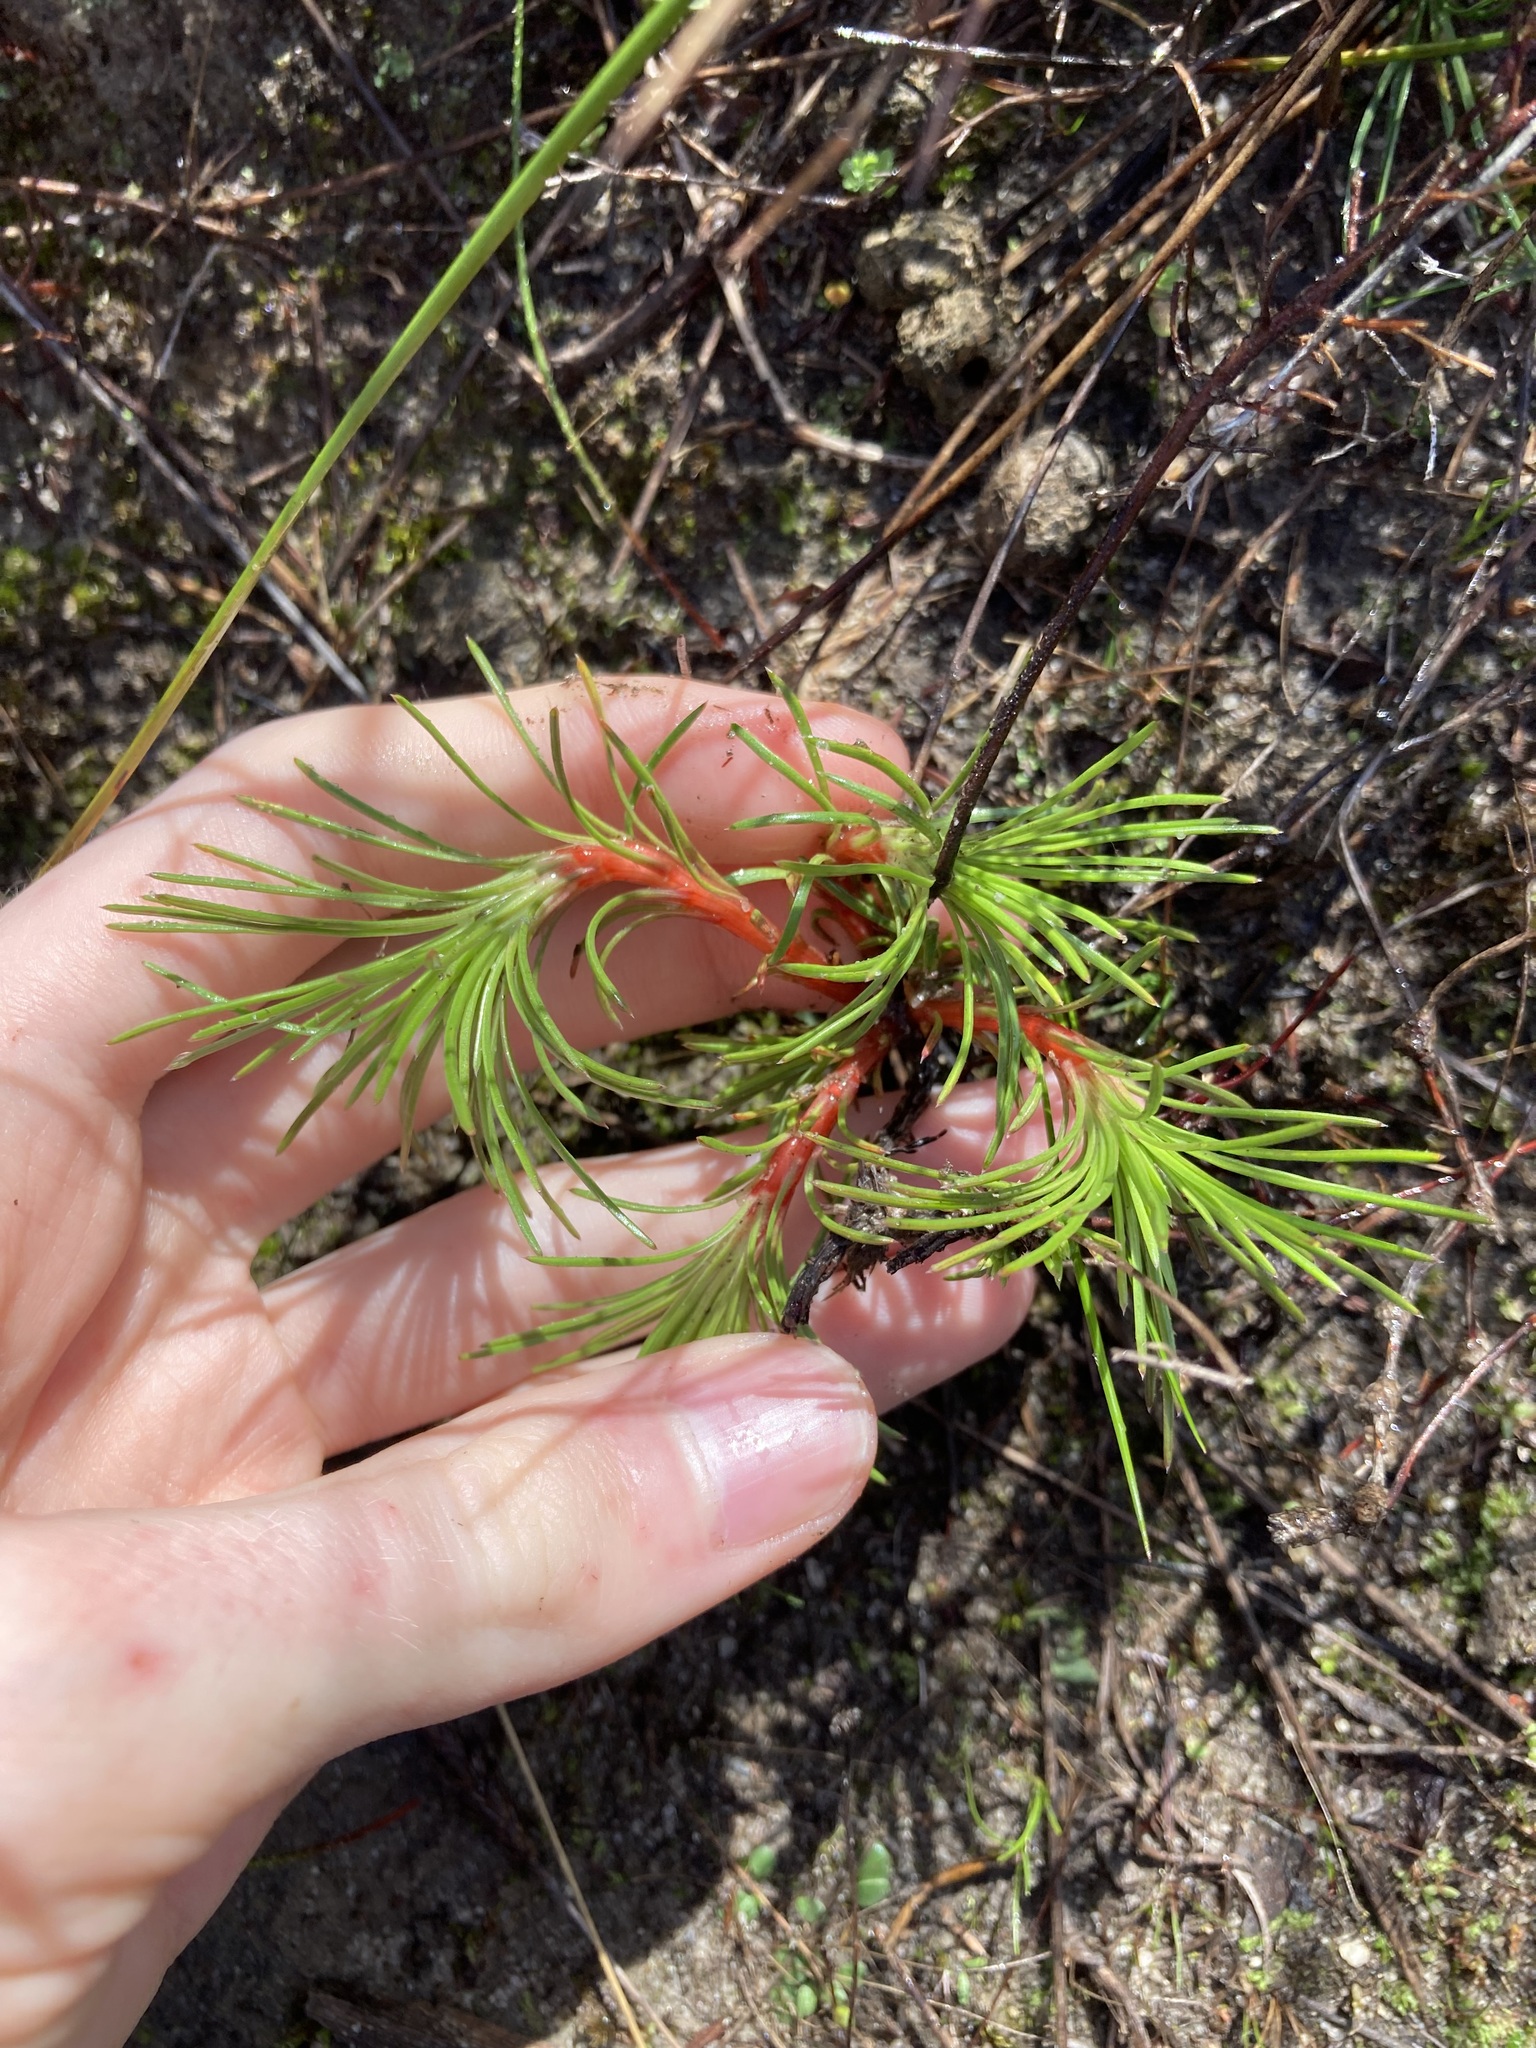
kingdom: Plantae
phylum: Tracheophyta
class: Magnoliopsida
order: Asterales
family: Stylidiaceae
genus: Stylidium
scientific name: Stylidium
